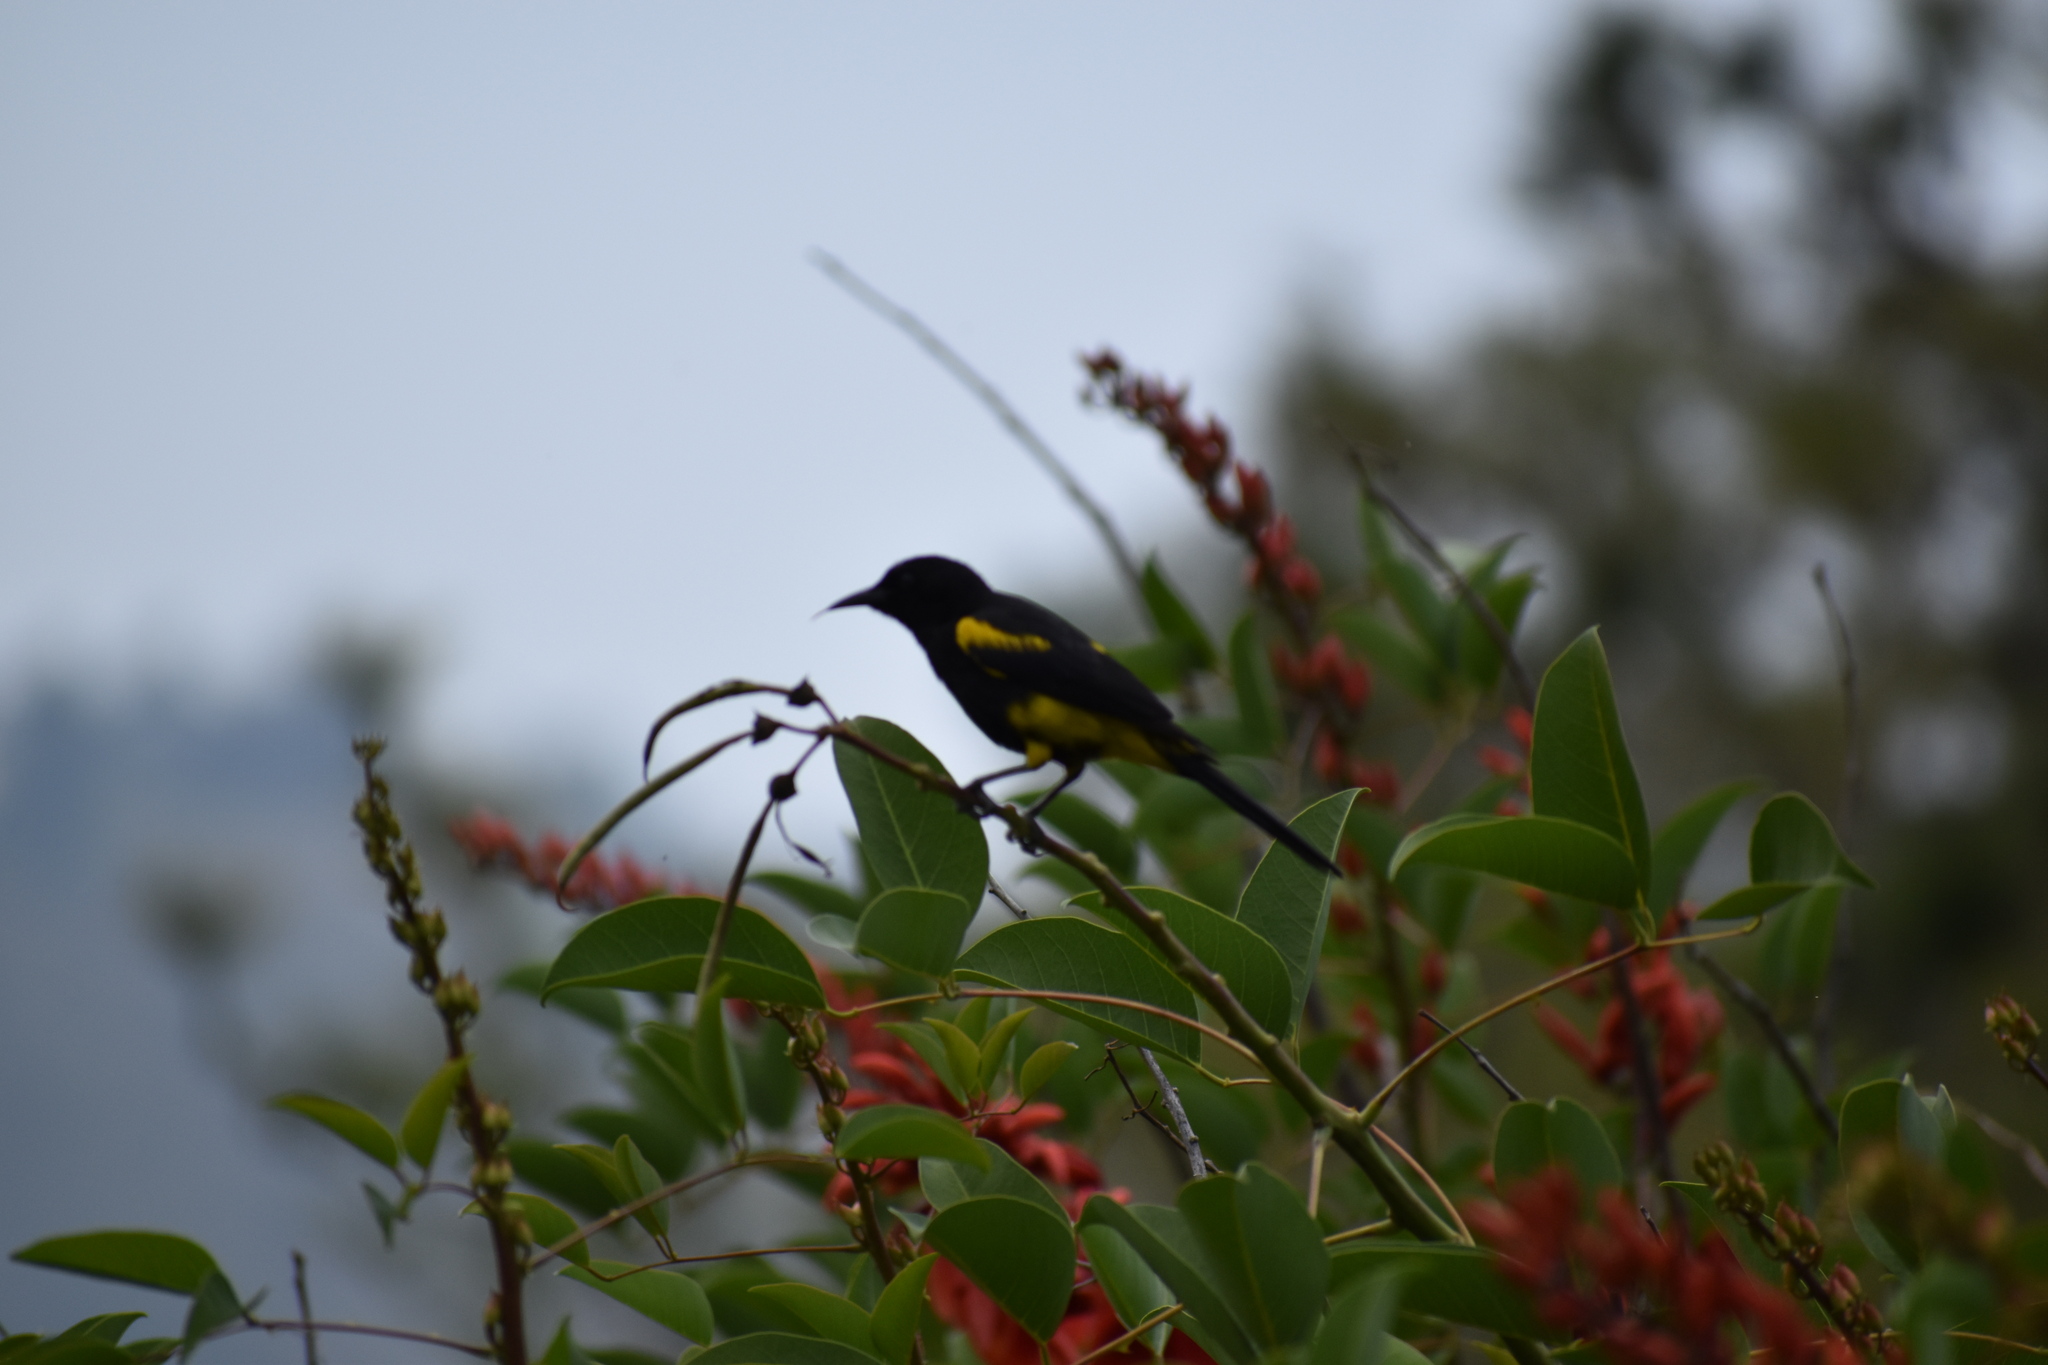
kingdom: Animalia
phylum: Chordata
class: Aves
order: Passeriformes
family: Icteridae
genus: Icterus
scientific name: Icterus dominicensis
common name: Hispaniolan oriole
